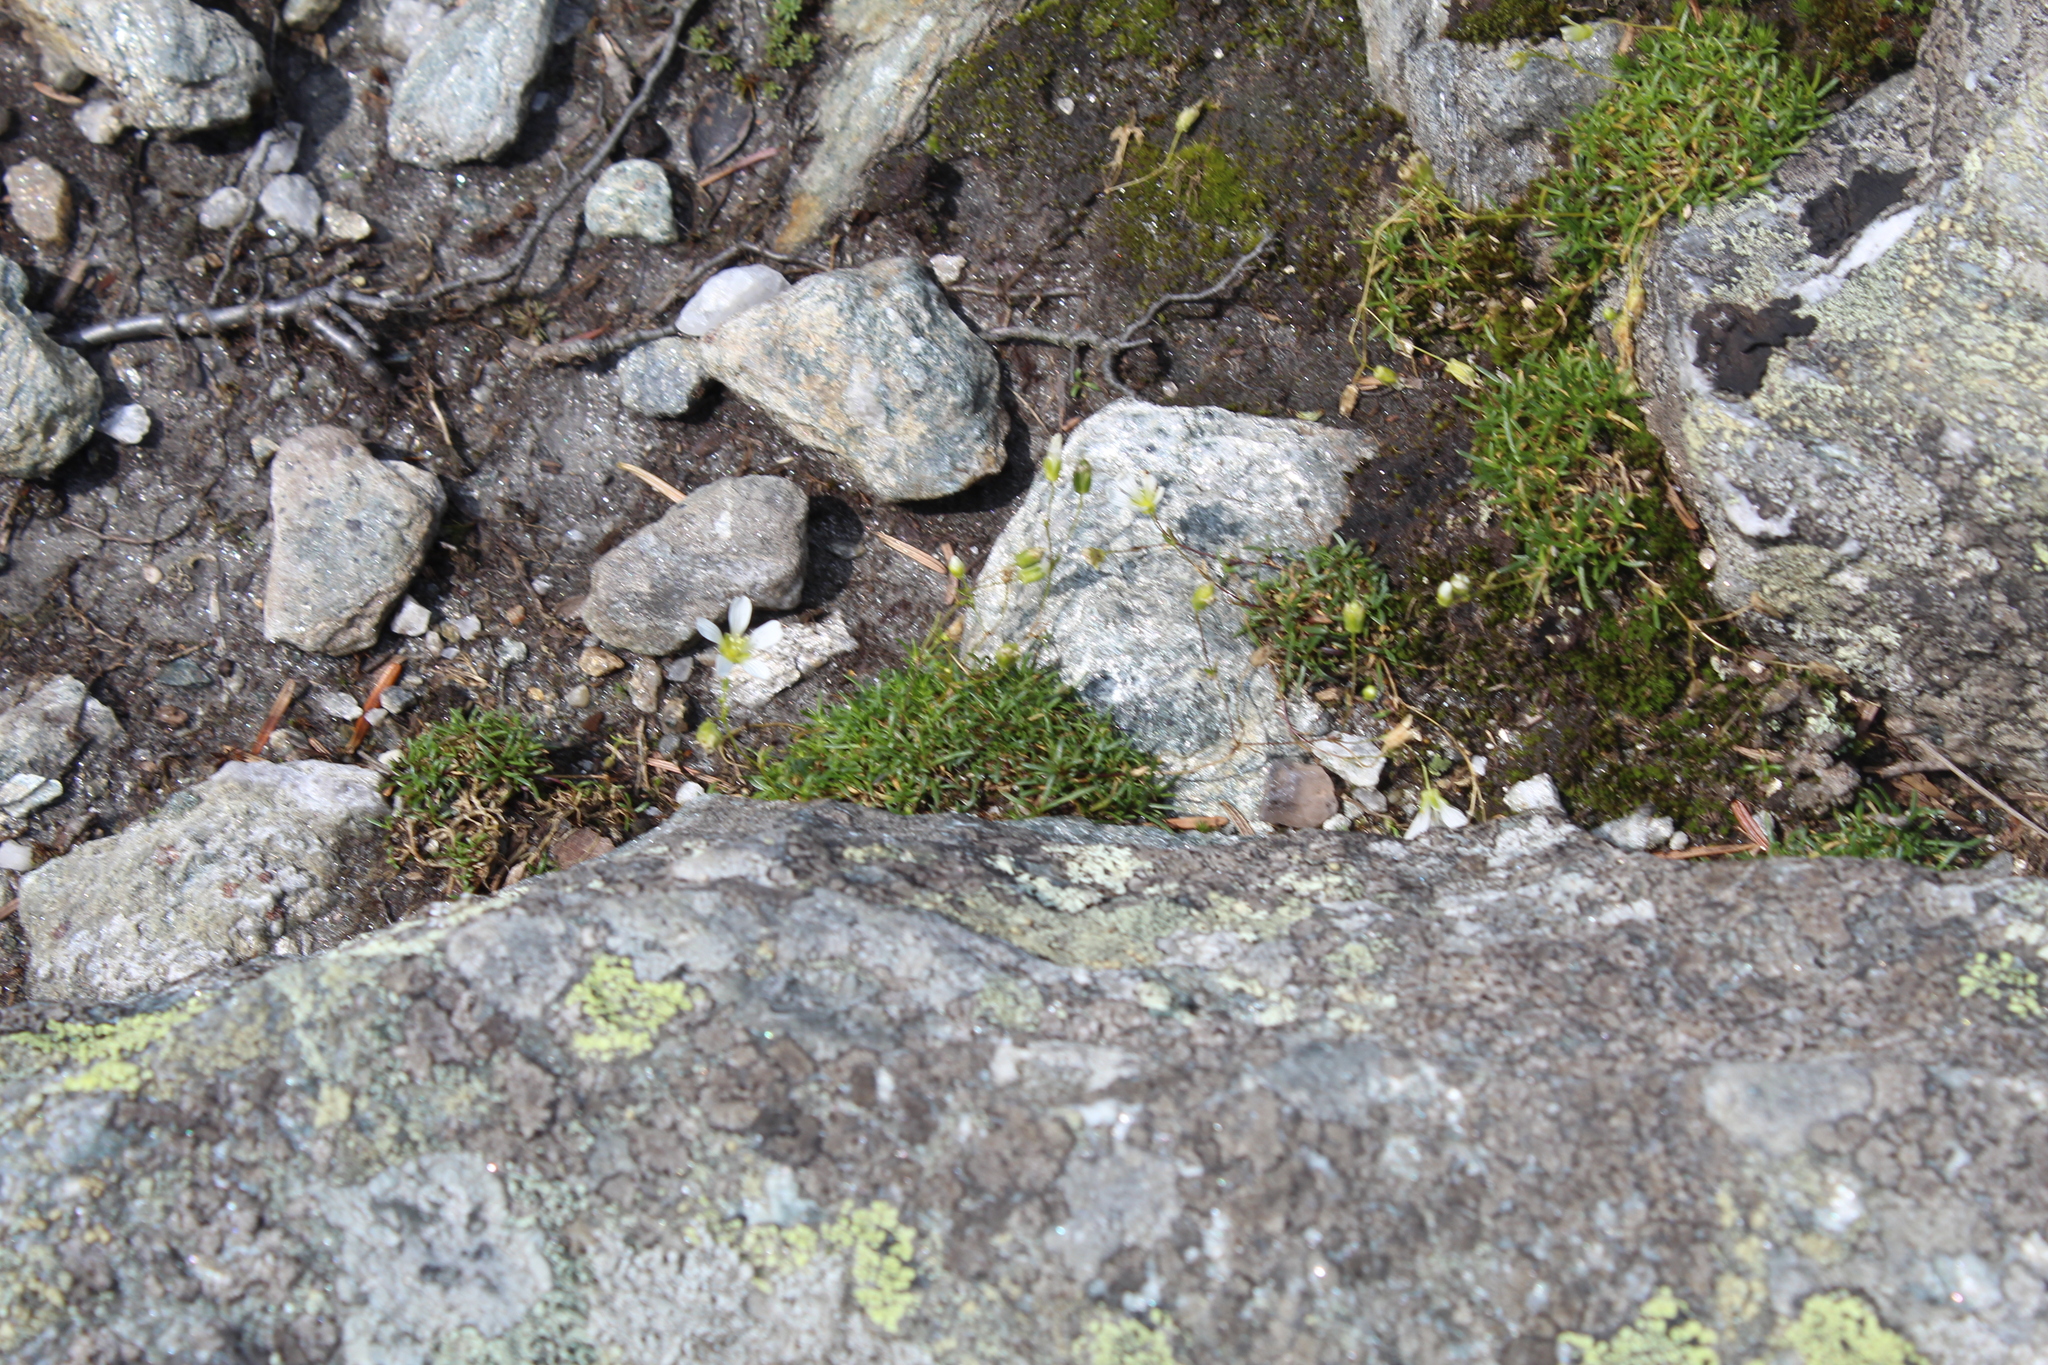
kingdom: Plantae
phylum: Tracheophyta
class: Magnoliopsida
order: Caryophyllales
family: Caryophyllaceae
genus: Geocarpon
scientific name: Geocarpon groenlandicum
